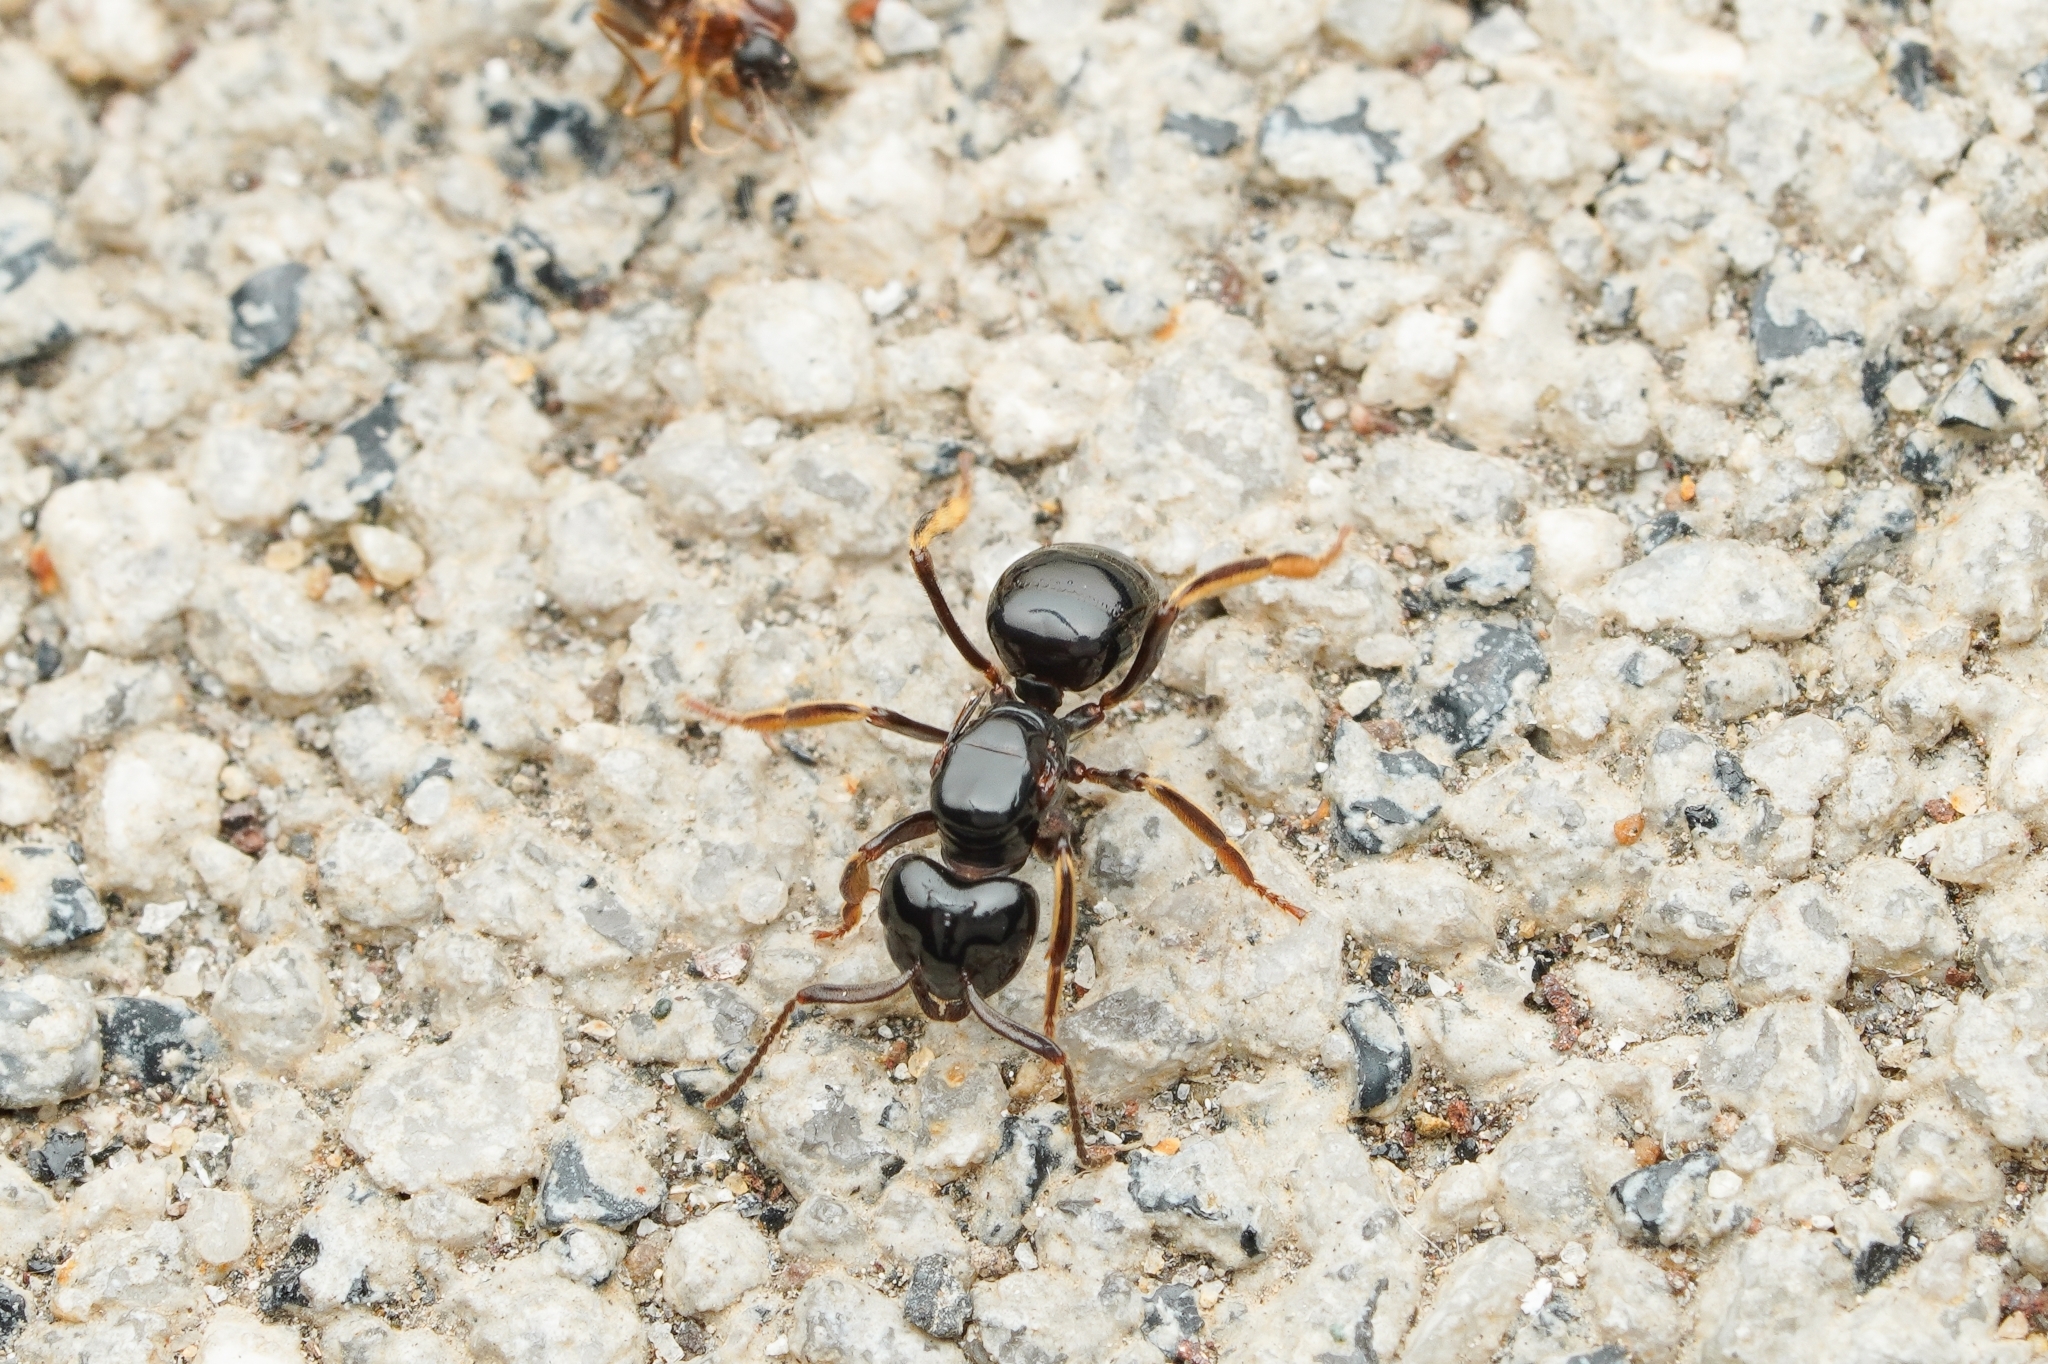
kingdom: Animalia
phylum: Arthropoda
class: Insecta
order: Hymenoptera
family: Formicidae
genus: Lasius
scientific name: Lasius spathepus
